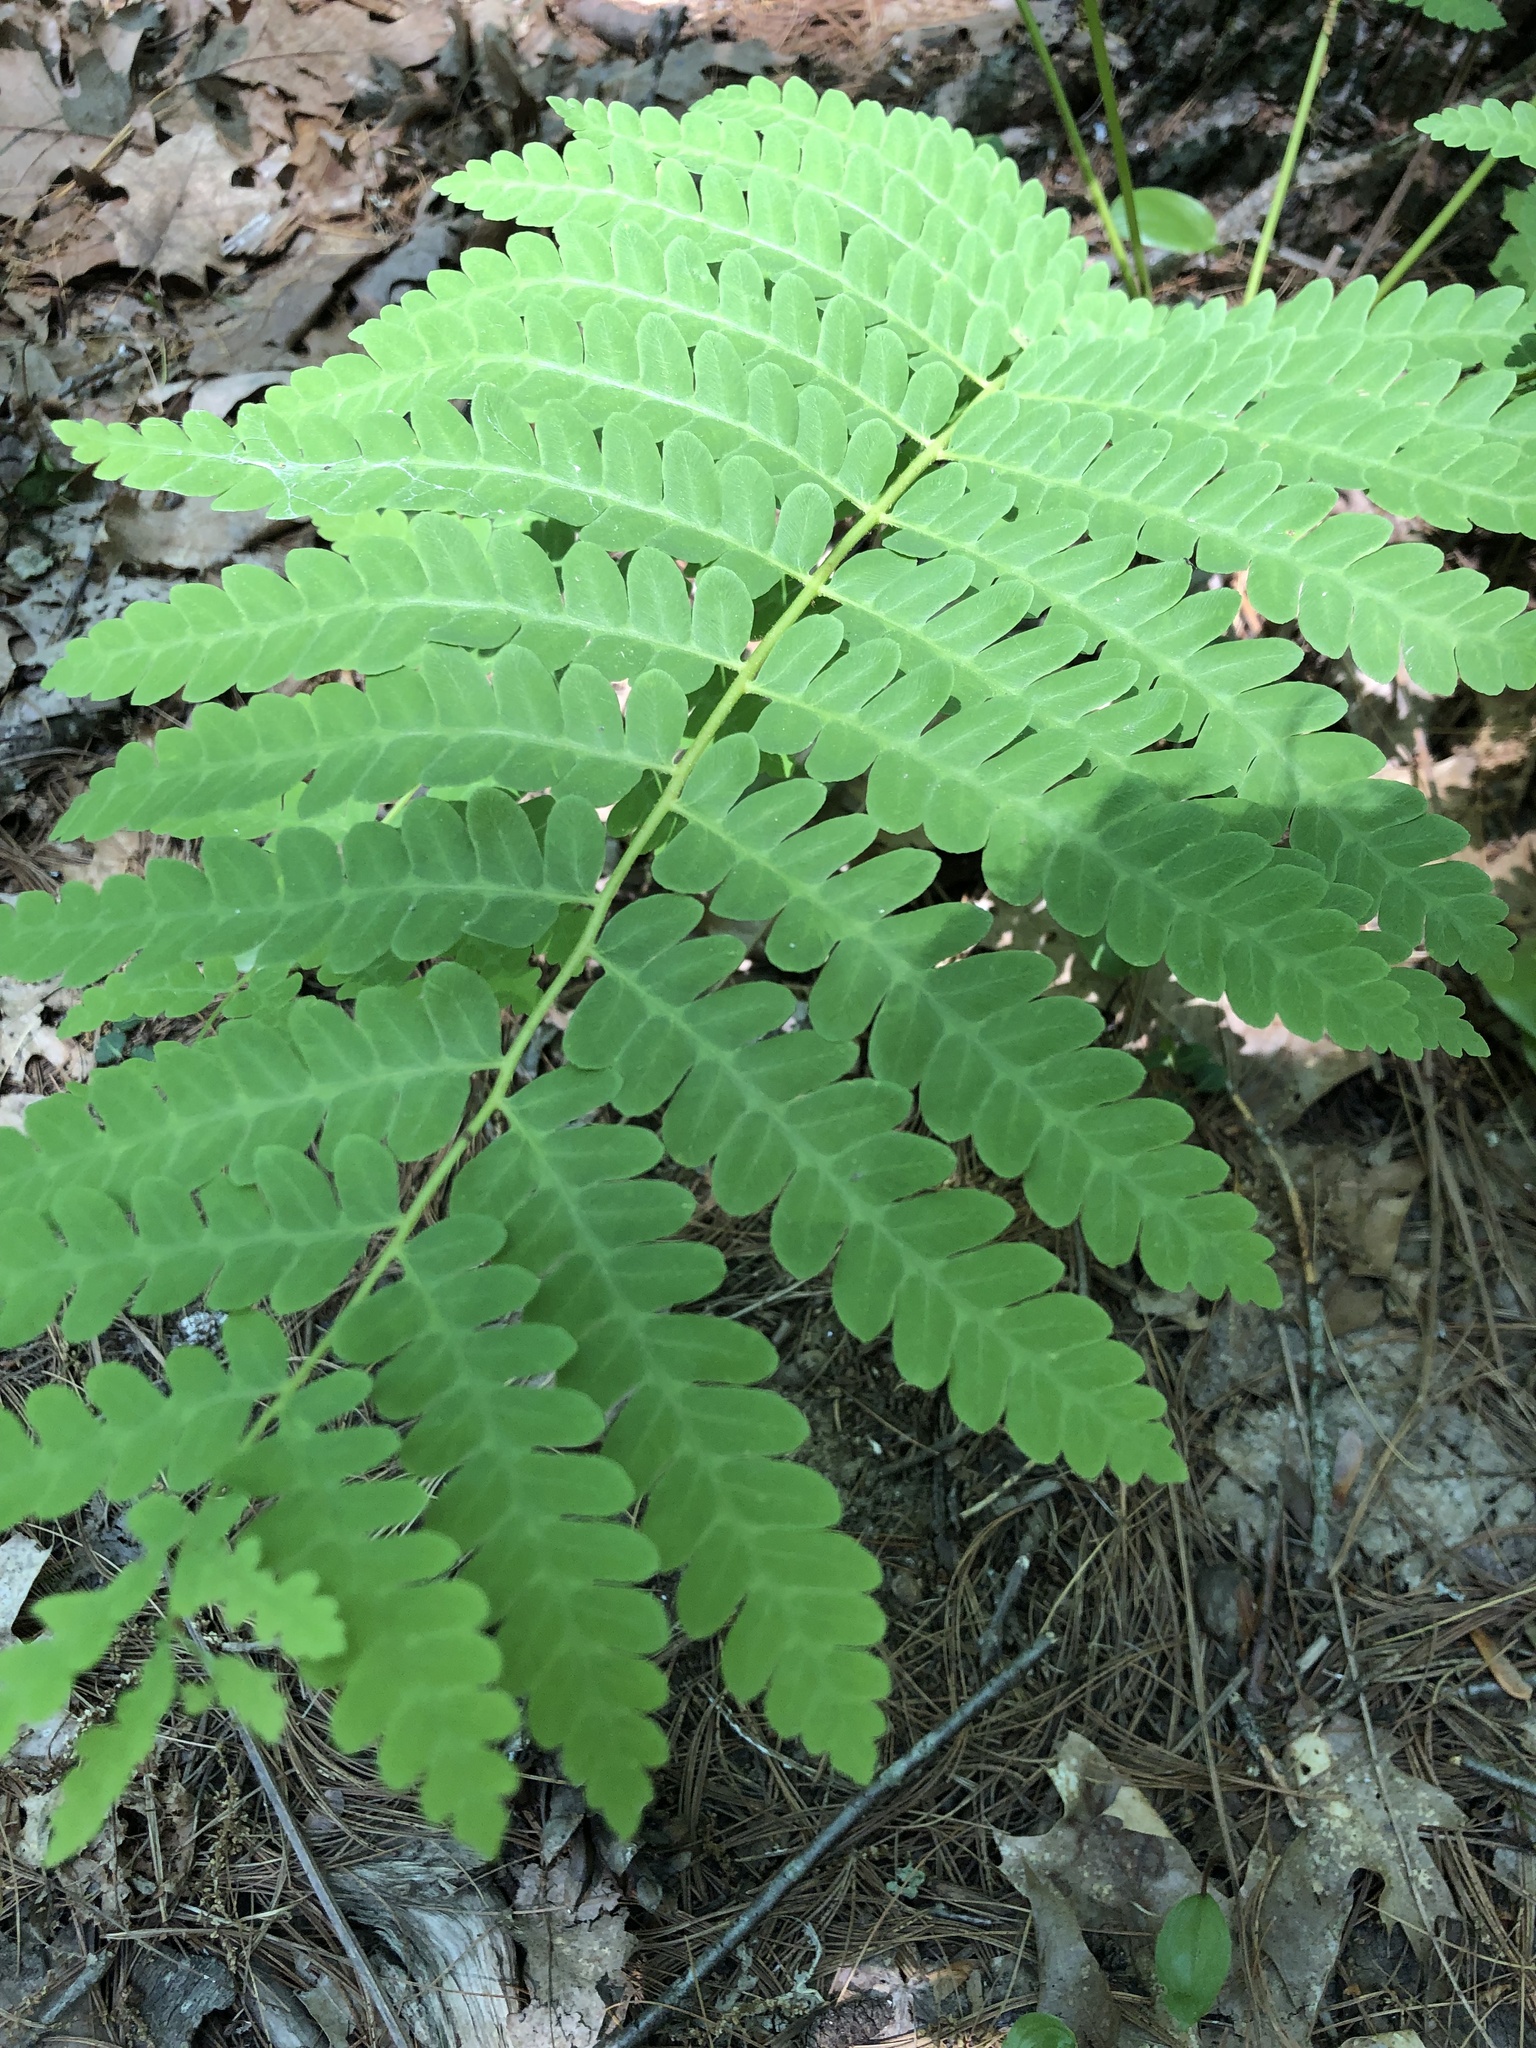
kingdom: Plantae
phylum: Tracheophyta
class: Polypodiopsida
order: Osmundales
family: Osmundaceae
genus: Claytosmunda
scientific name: Claytosmunda claytoniana
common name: Clayton's fern
